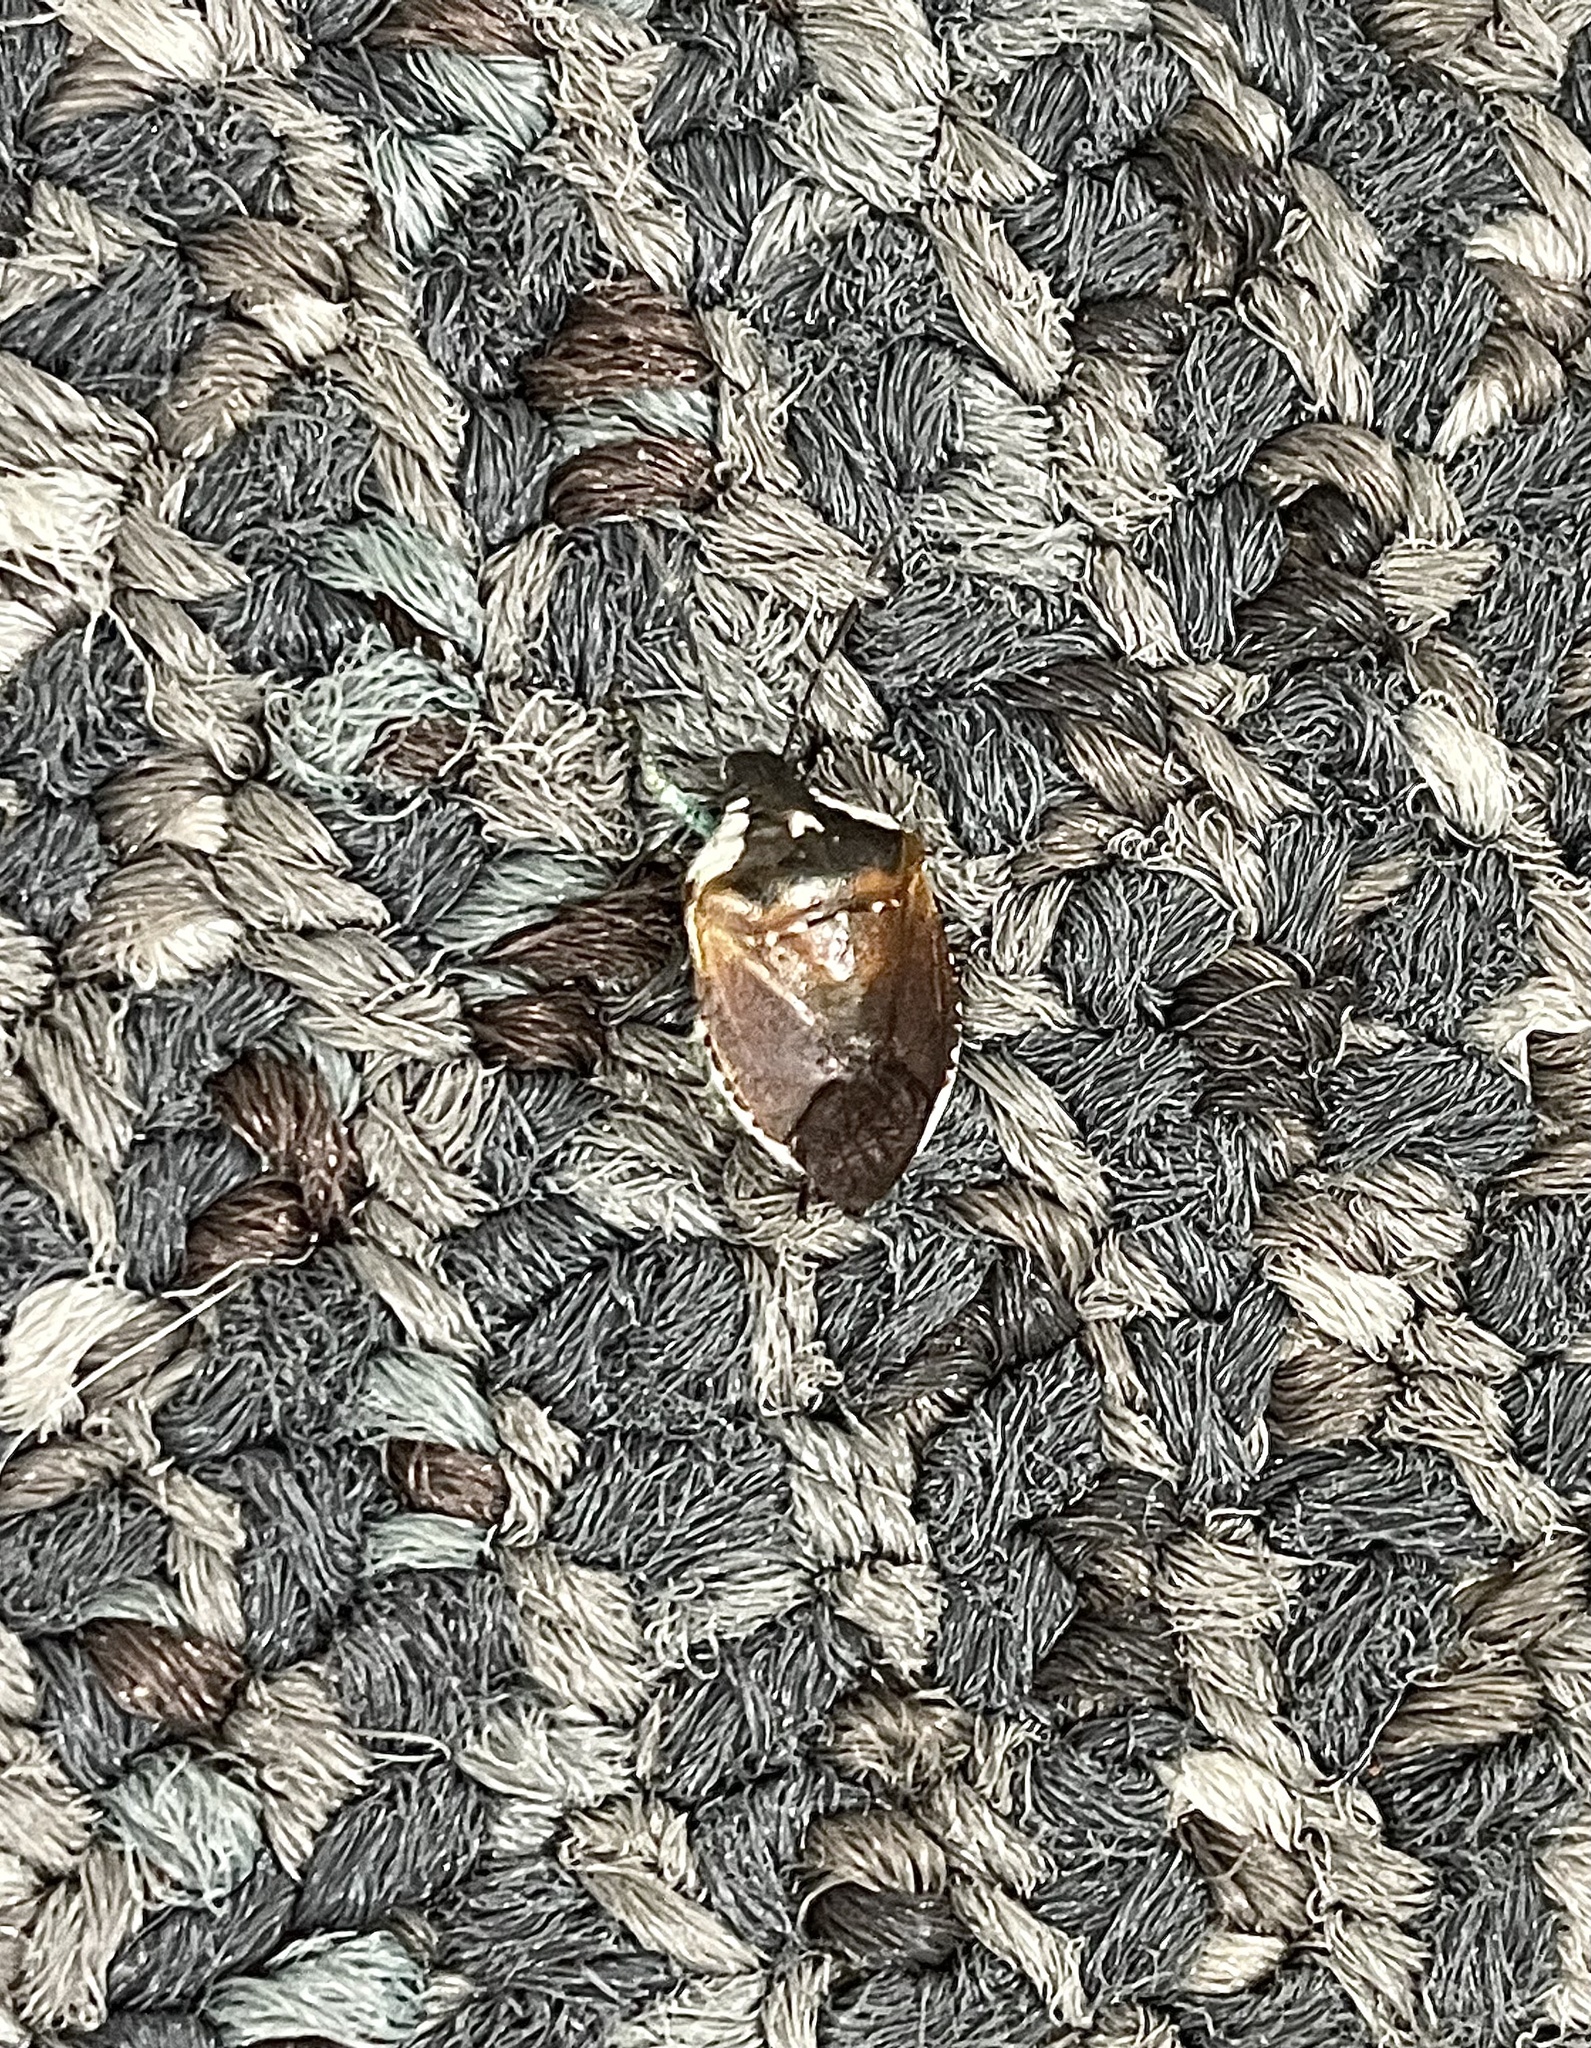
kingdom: Animalia
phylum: Arthropoda
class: Insecta
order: Hemiptera
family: Pentatomidae
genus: Monteithiella
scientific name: Monteithiella
